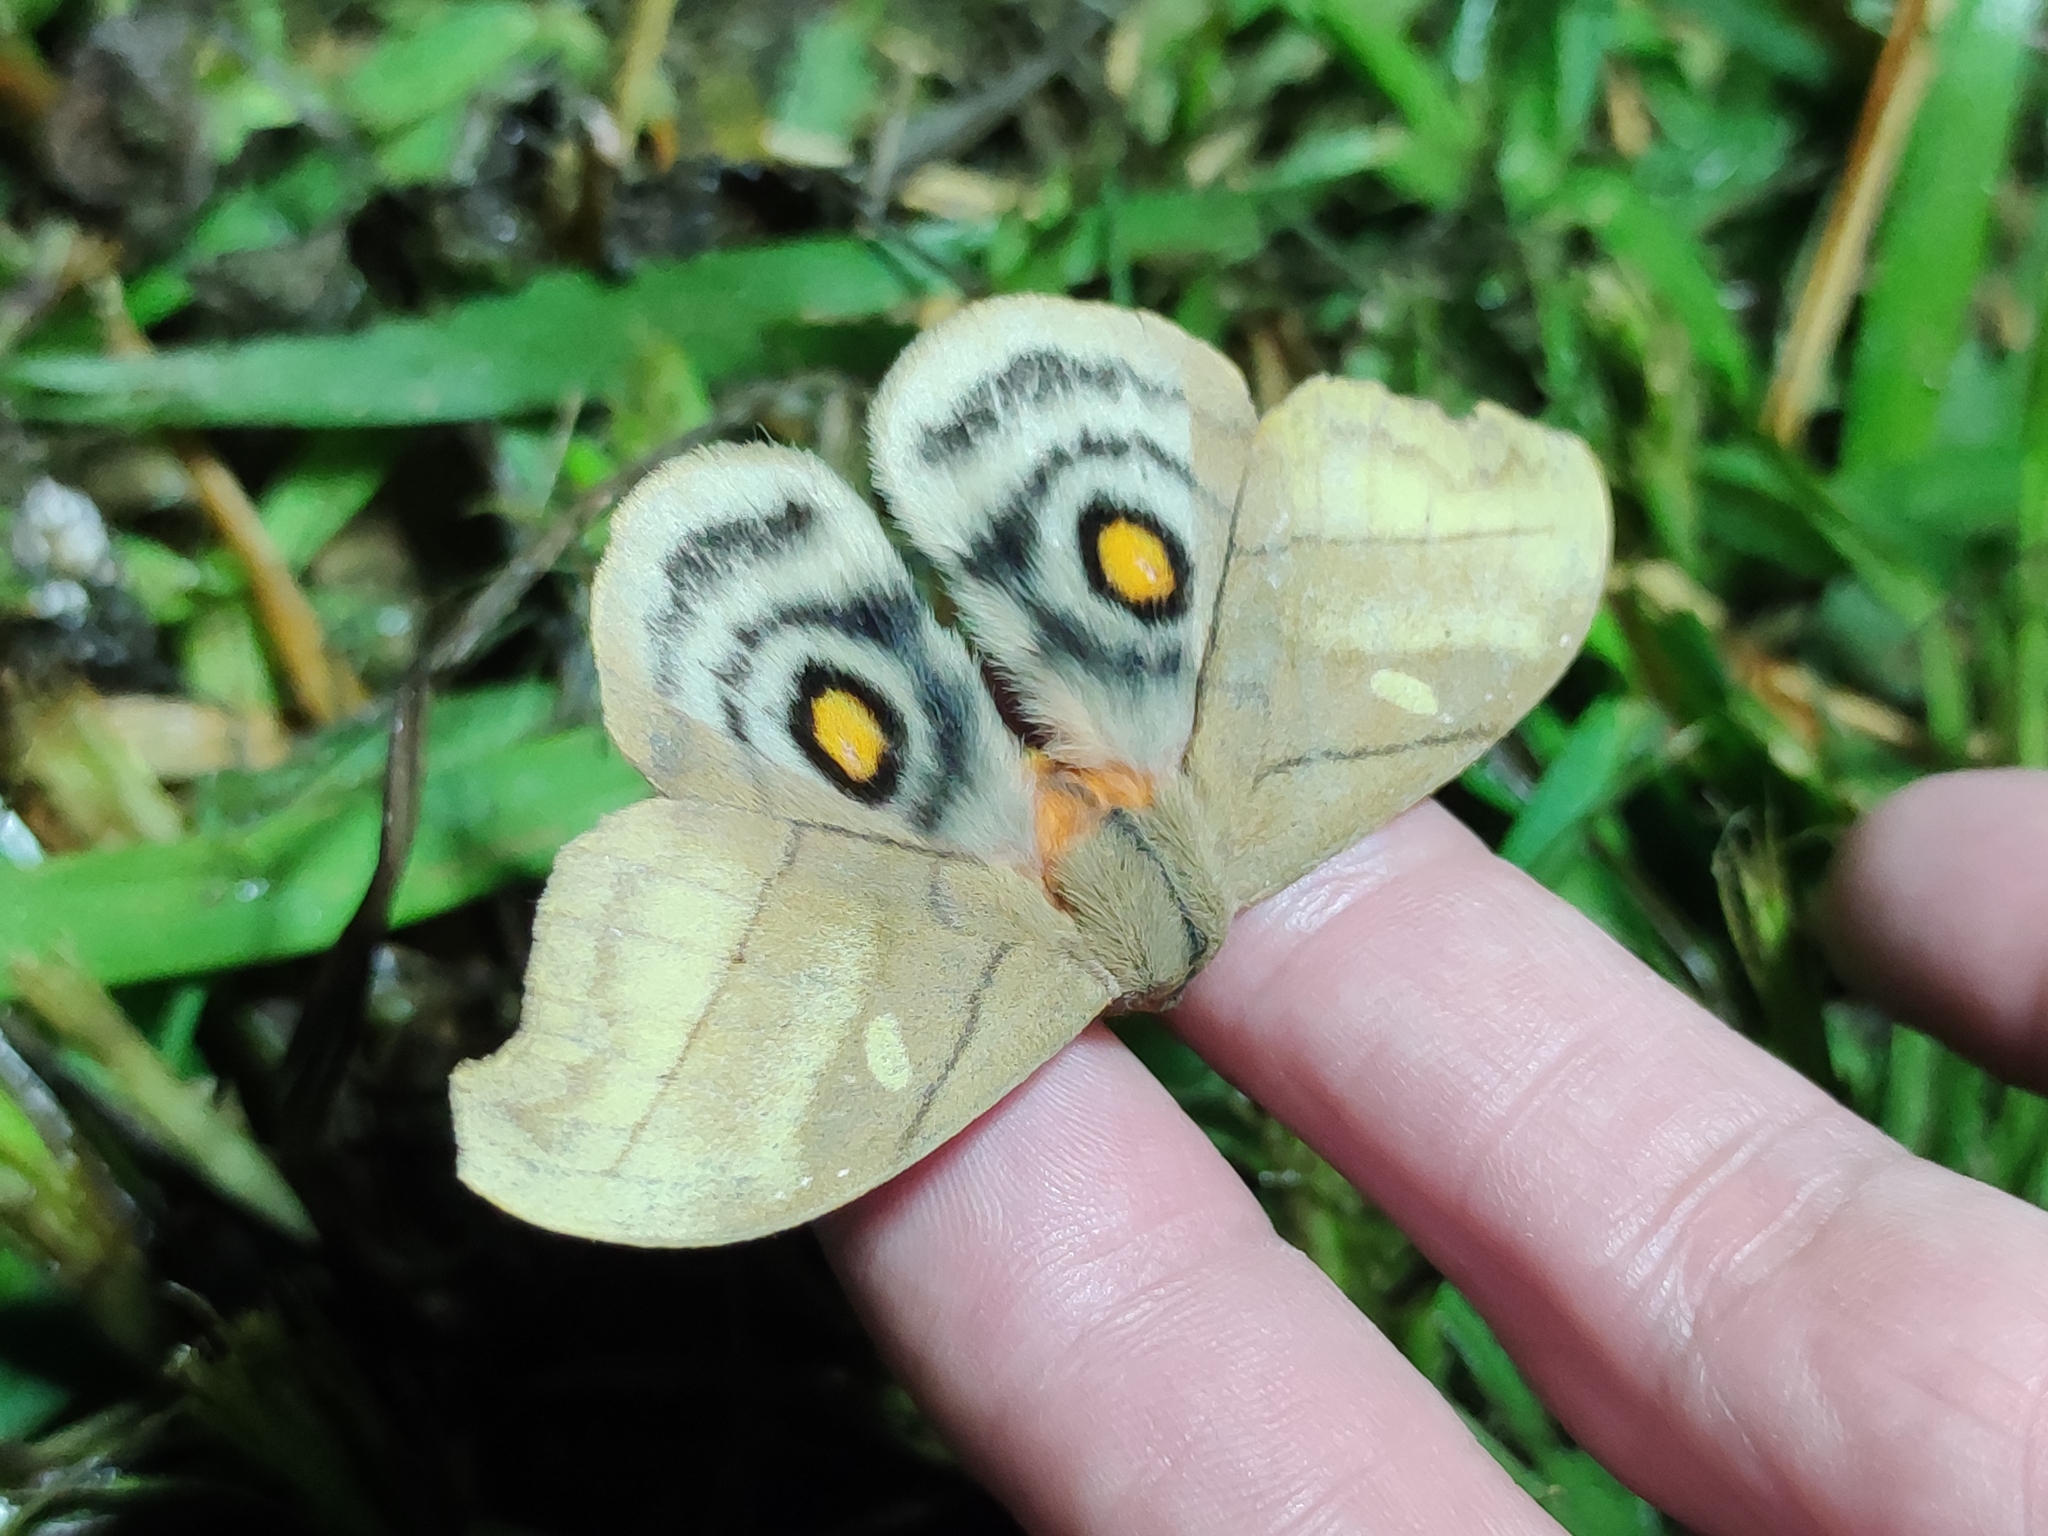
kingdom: Animalia
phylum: Arthropoda
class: Insecta
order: Lepidoptera
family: Saturniidae
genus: Hyperchiria
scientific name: Hyperchiria nausica
